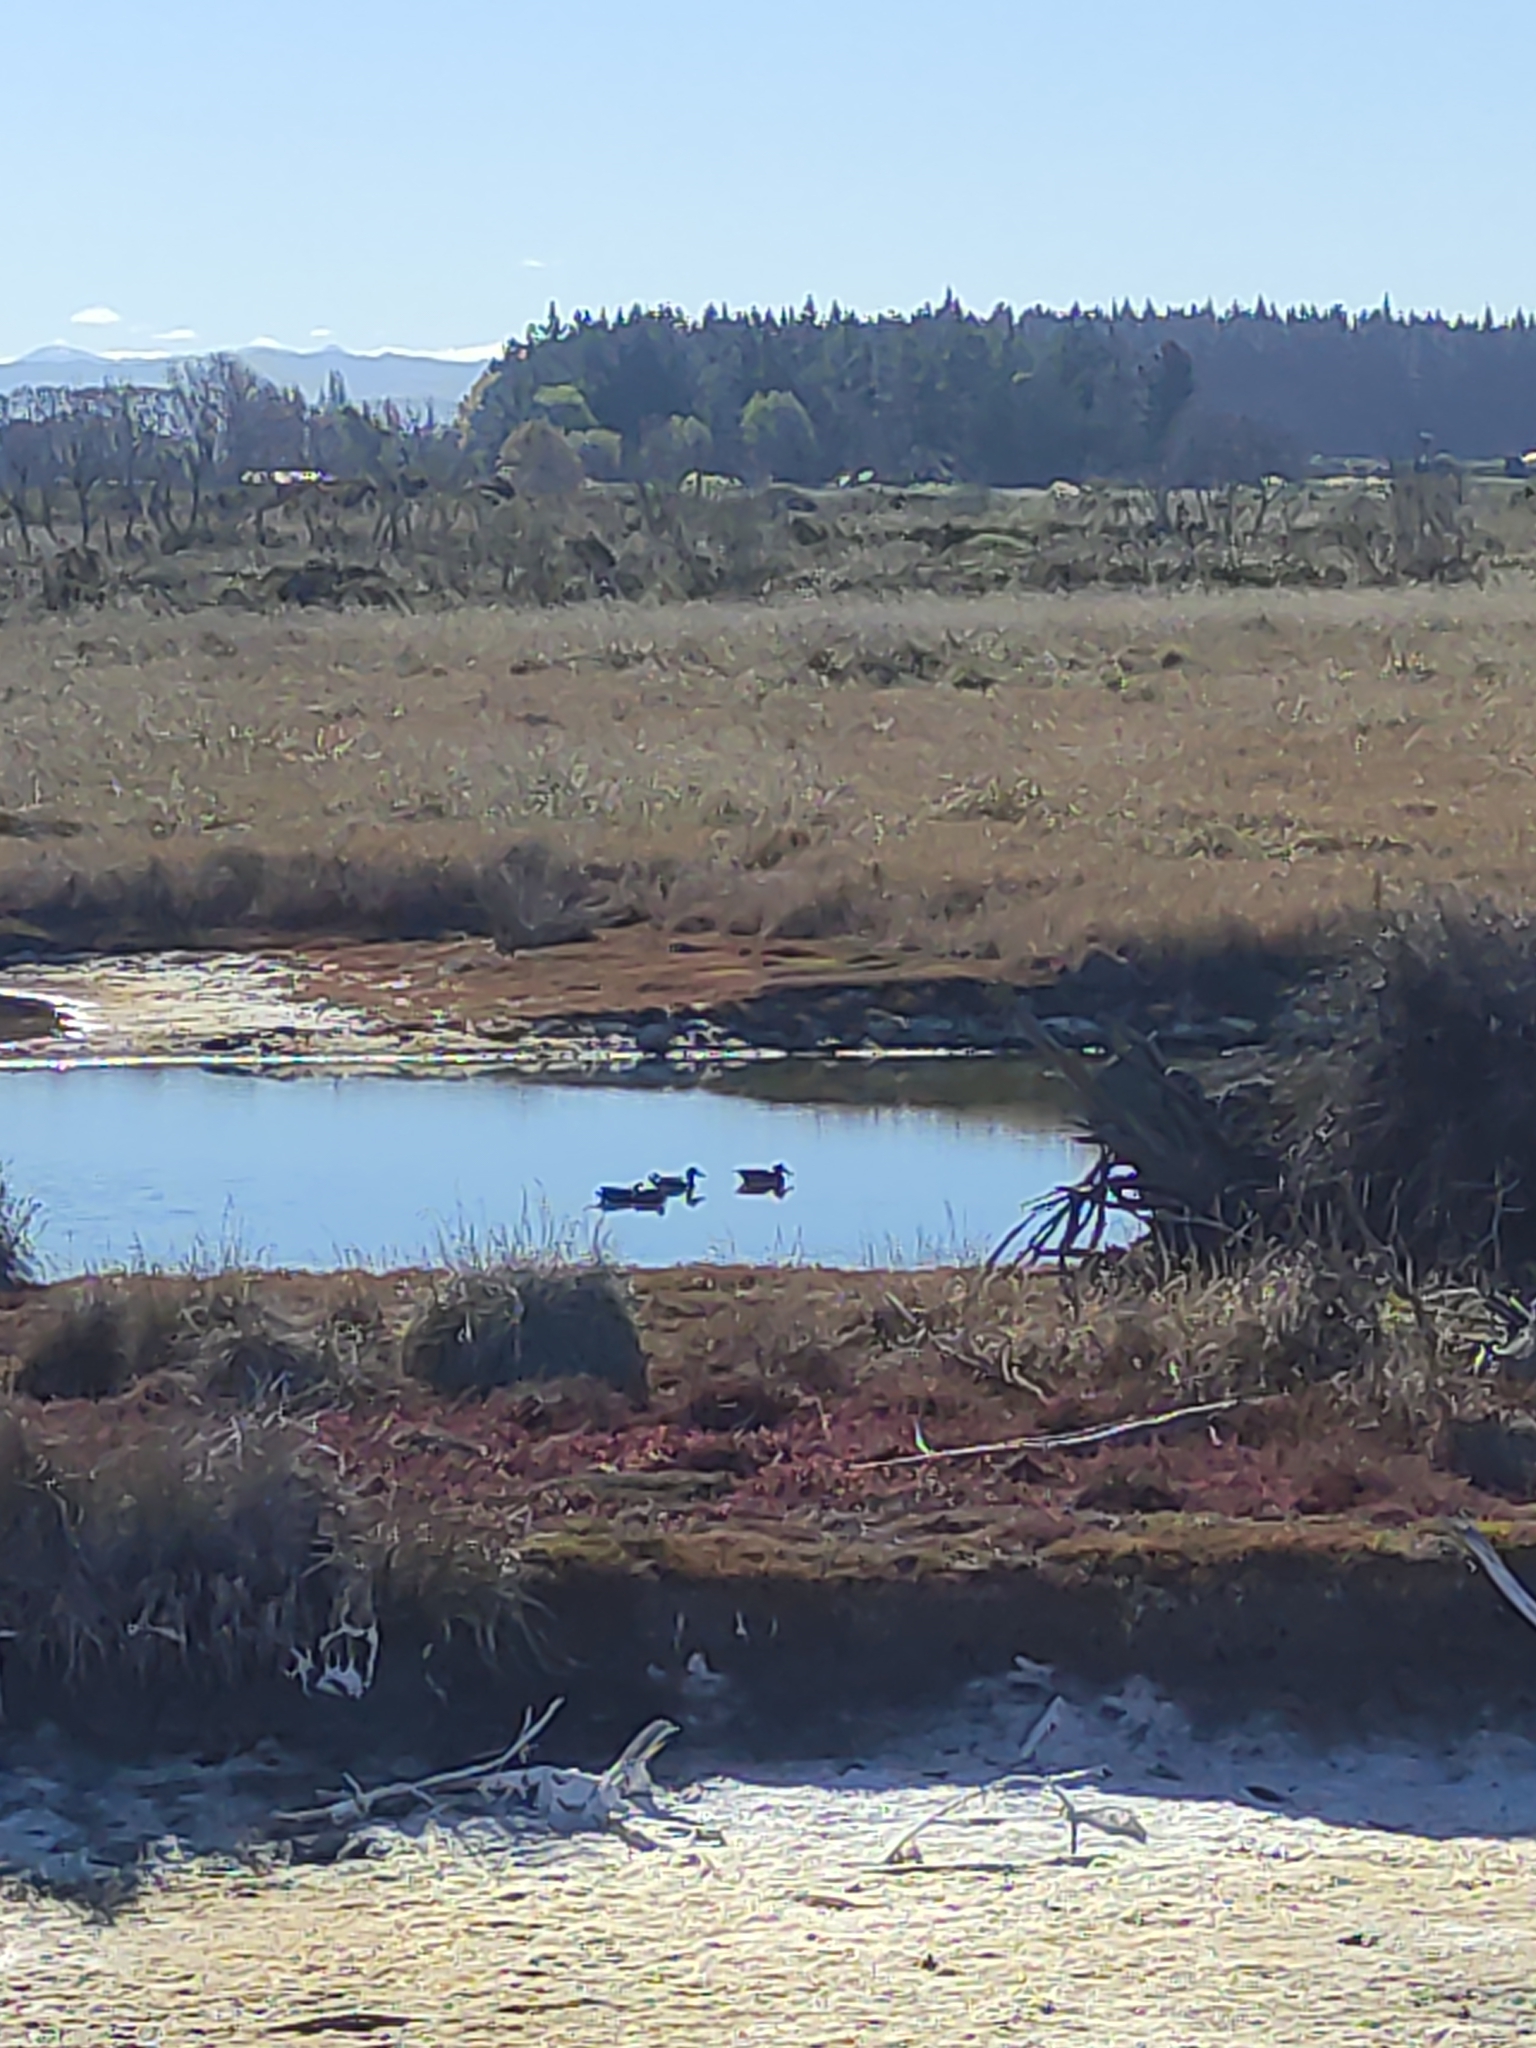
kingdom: Animalia
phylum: Chordata
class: Aves
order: Anseriformes
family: Anatidae
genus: Anas
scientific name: Anas platyrhynchos
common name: Mallard
